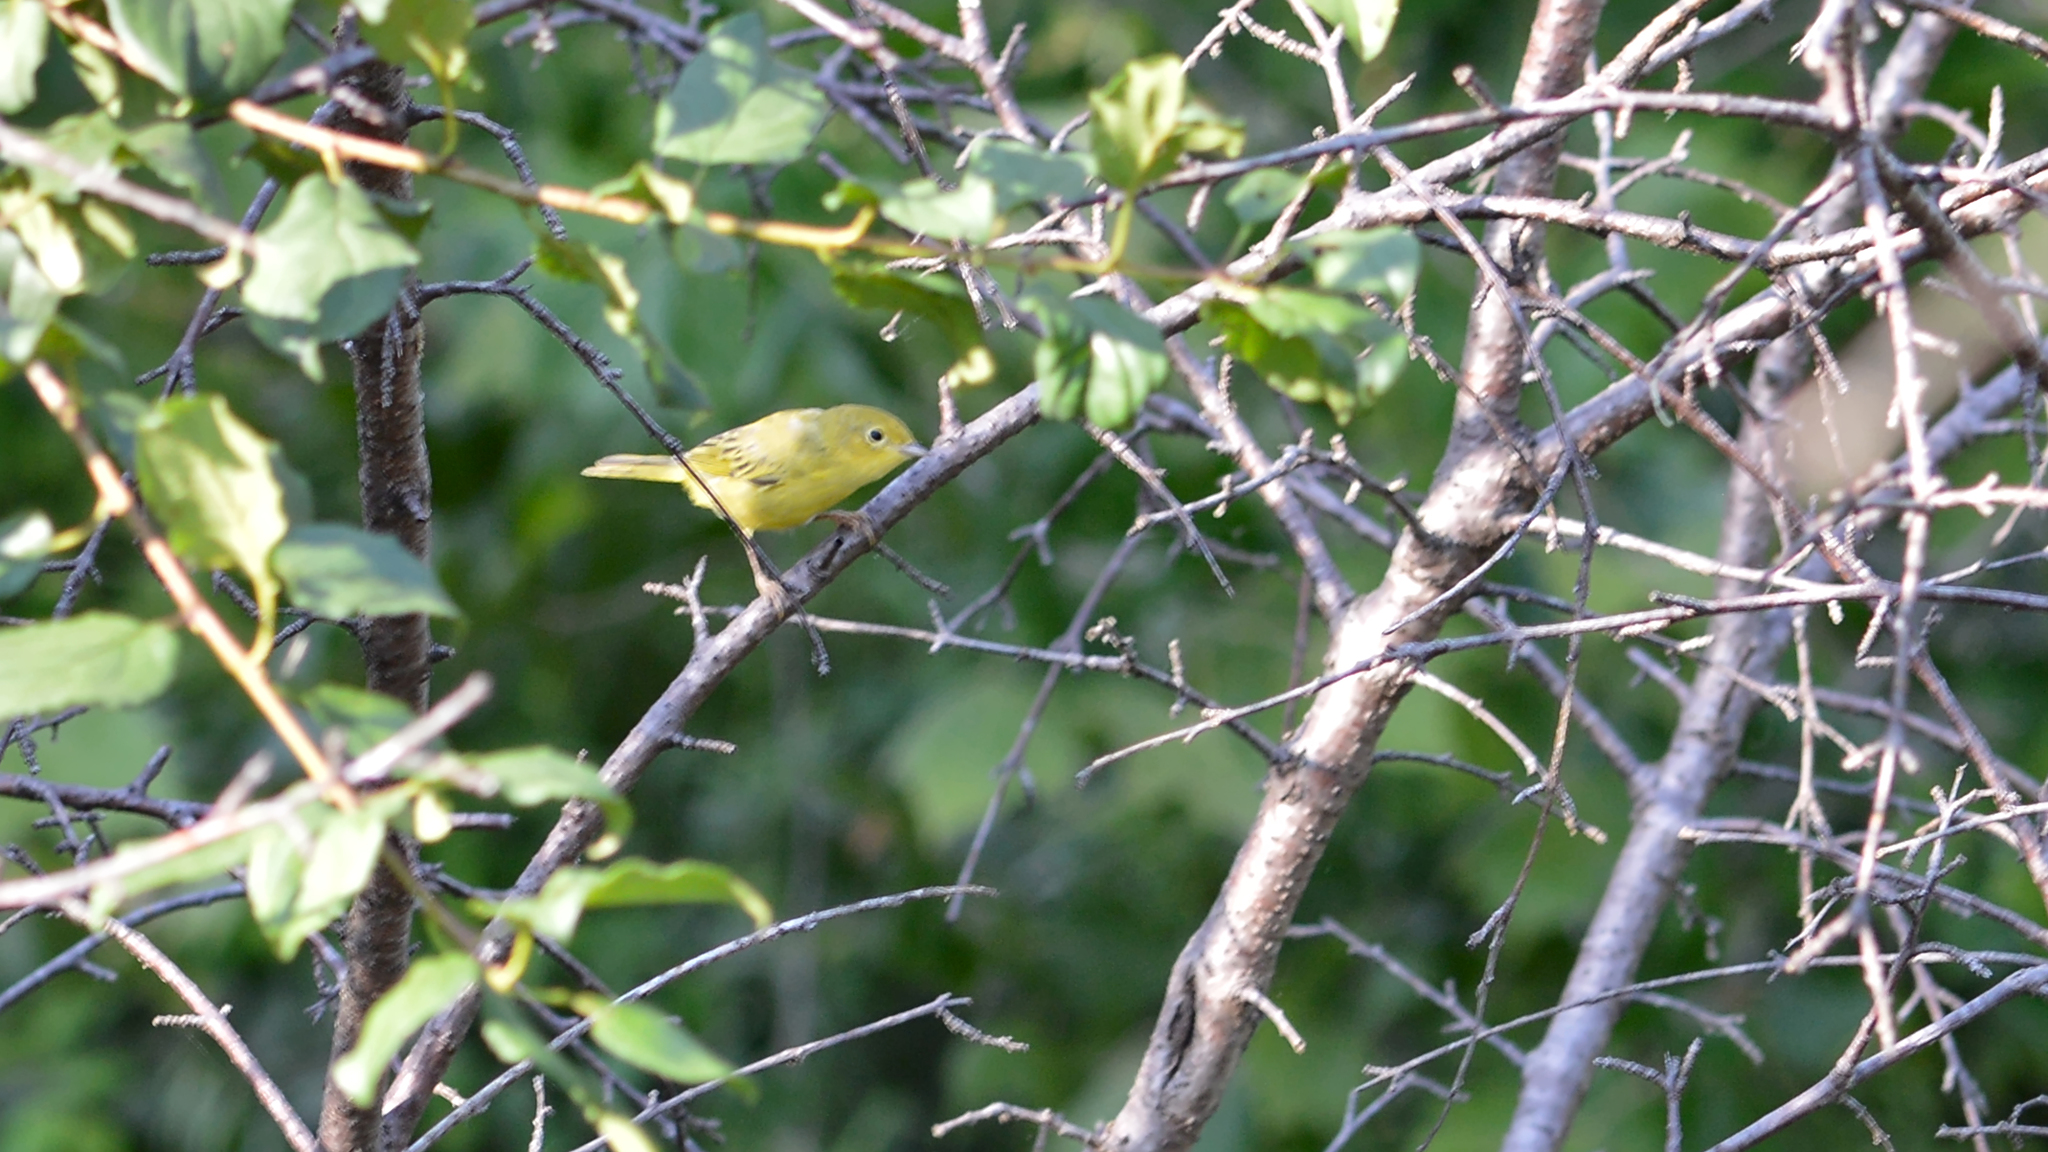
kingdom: Animalia
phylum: Chordata
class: Aves
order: Passeriformes
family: Parulidae
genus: Setophaga
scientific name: Setophaga petechia
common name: Yellow warbler
